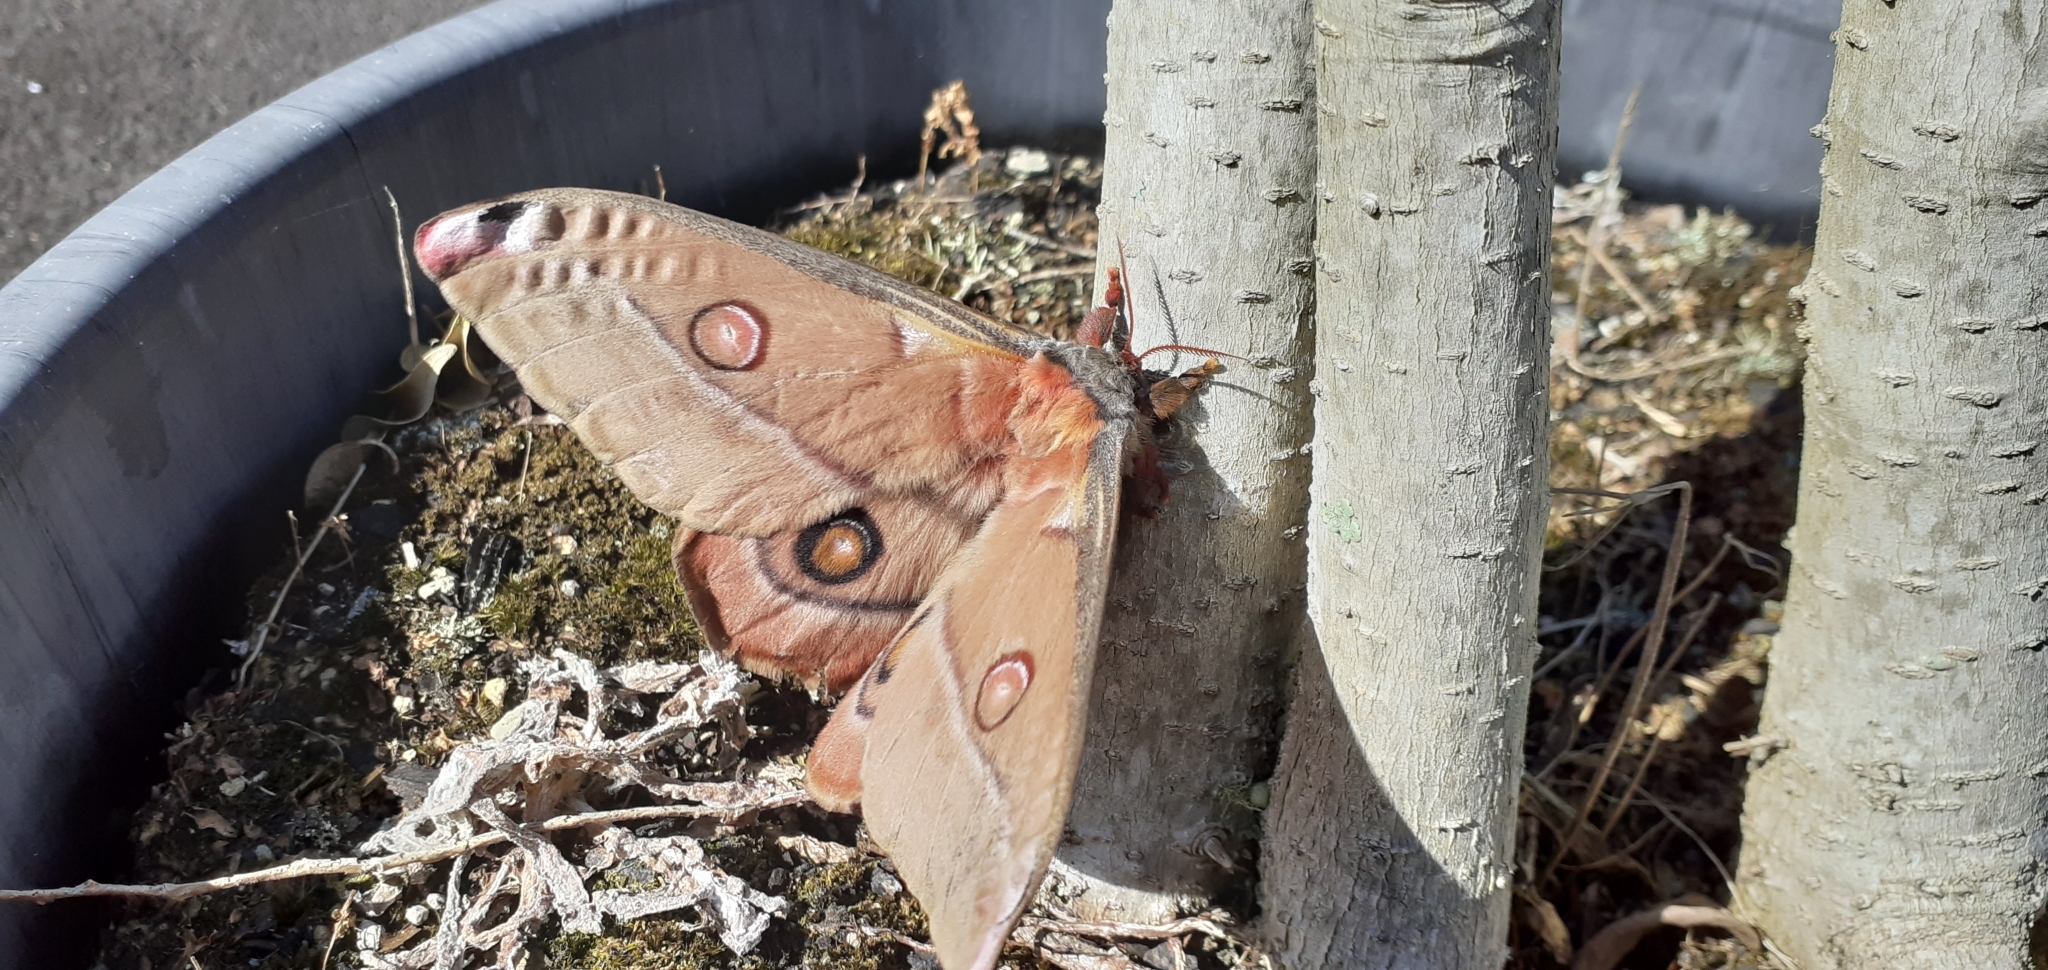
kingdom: Animalia
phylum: Arthropoda
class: Insecta
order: Lepidoptera
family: Saturniidae
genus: Opodiphthera
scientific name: Opodiphthera
